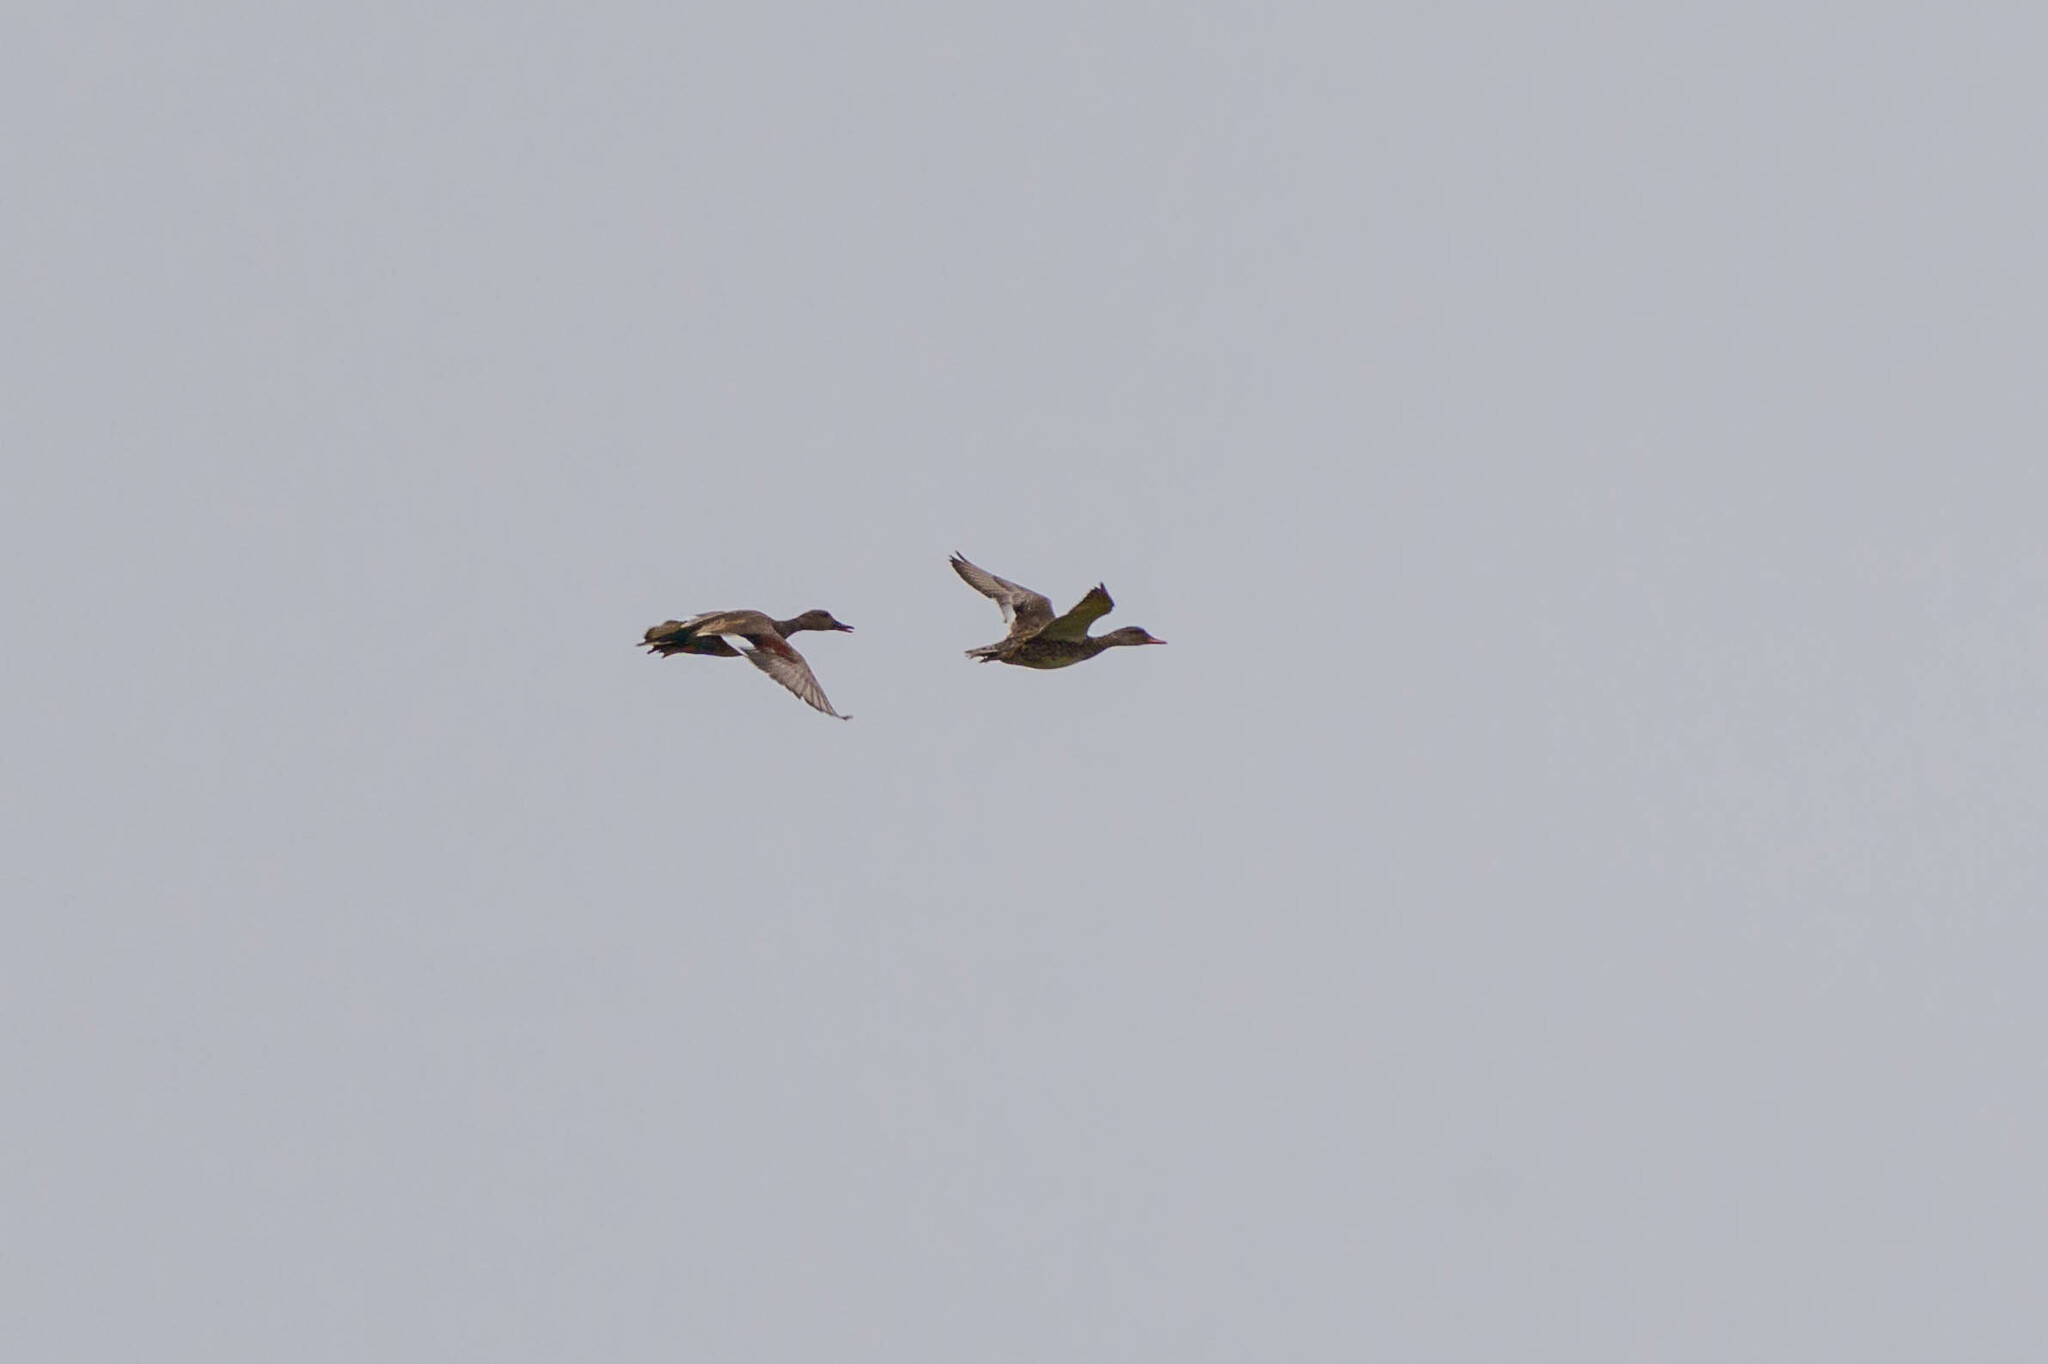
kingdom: Animalia
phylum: Chordata
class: Aves
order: Anseriformes
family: Anatidae
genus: Mareca
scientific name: Mareca strepera
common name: Gadwall
